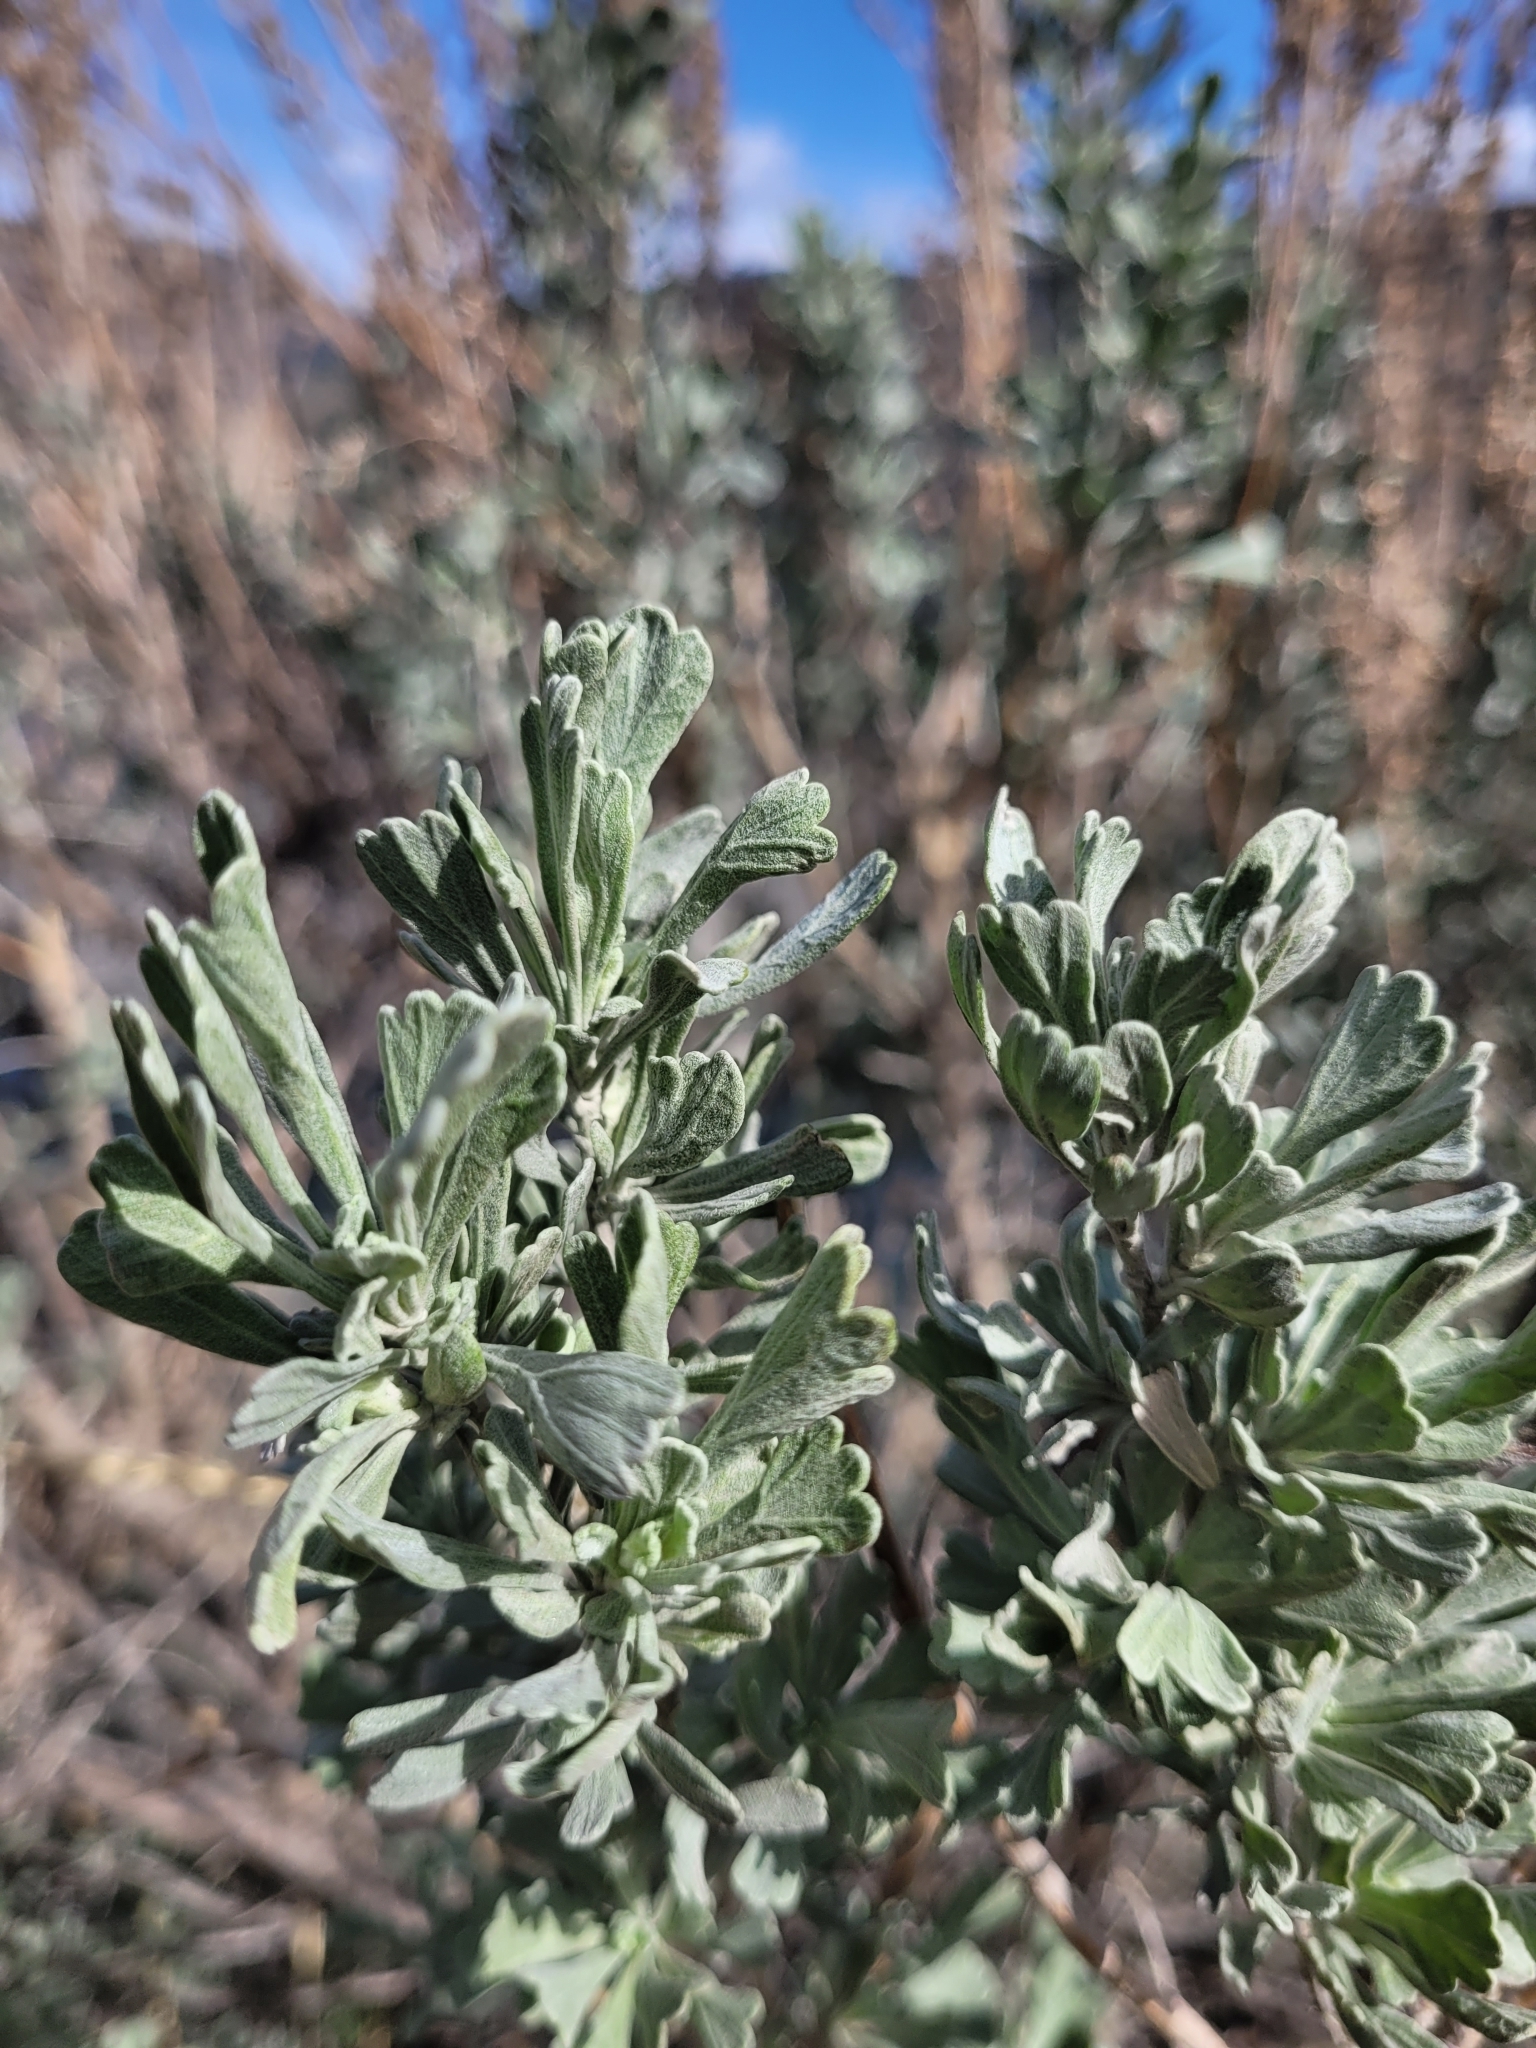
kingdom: Plantae
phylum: Tracheophyta
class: Magnoliopsida
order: Asterales
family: Asteraceae
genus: Artemisia
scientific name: Artemisia tridentata
